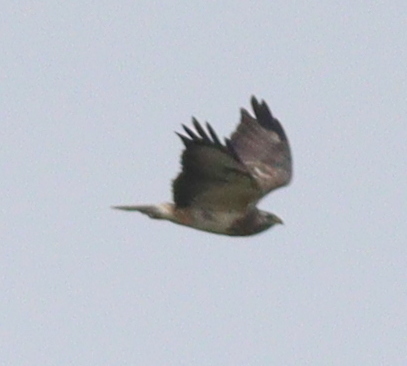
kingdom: Animalia
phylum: Chordata
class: Aves
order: Accipitriformes
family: Accipitridae
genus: Buteo
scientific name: Buteo buteo
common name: Common buzzard
